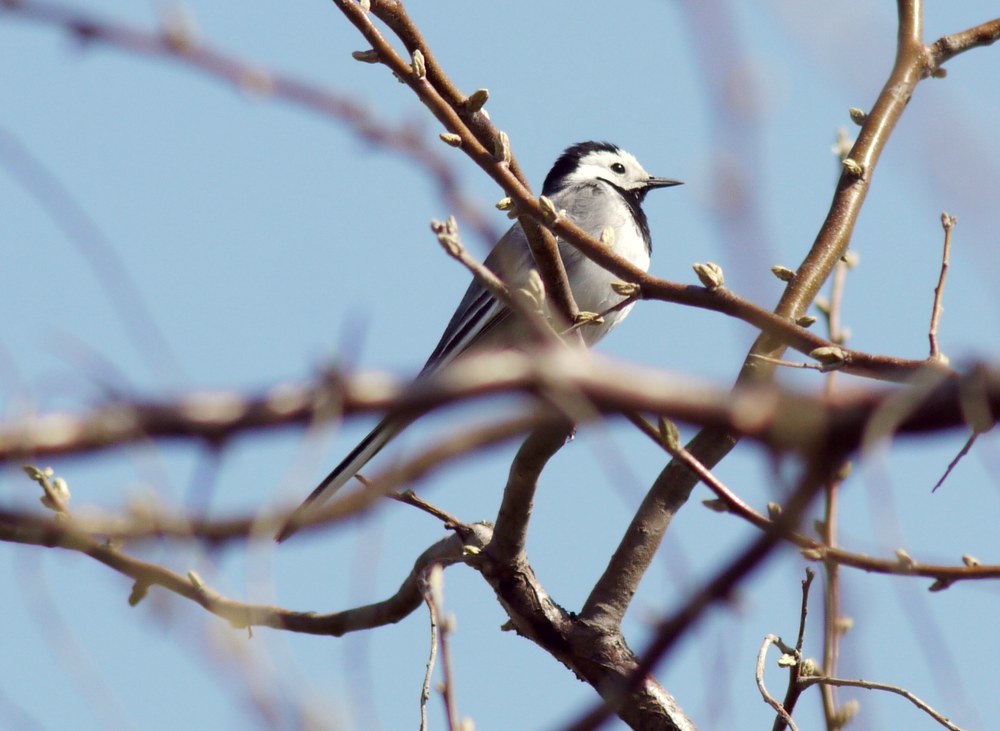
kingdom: Animalia
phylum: Chordata
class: Aves
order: Passeriformes
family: Motacillidae
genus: Motacilla
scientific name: Motacilla alba
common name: White wagtail
